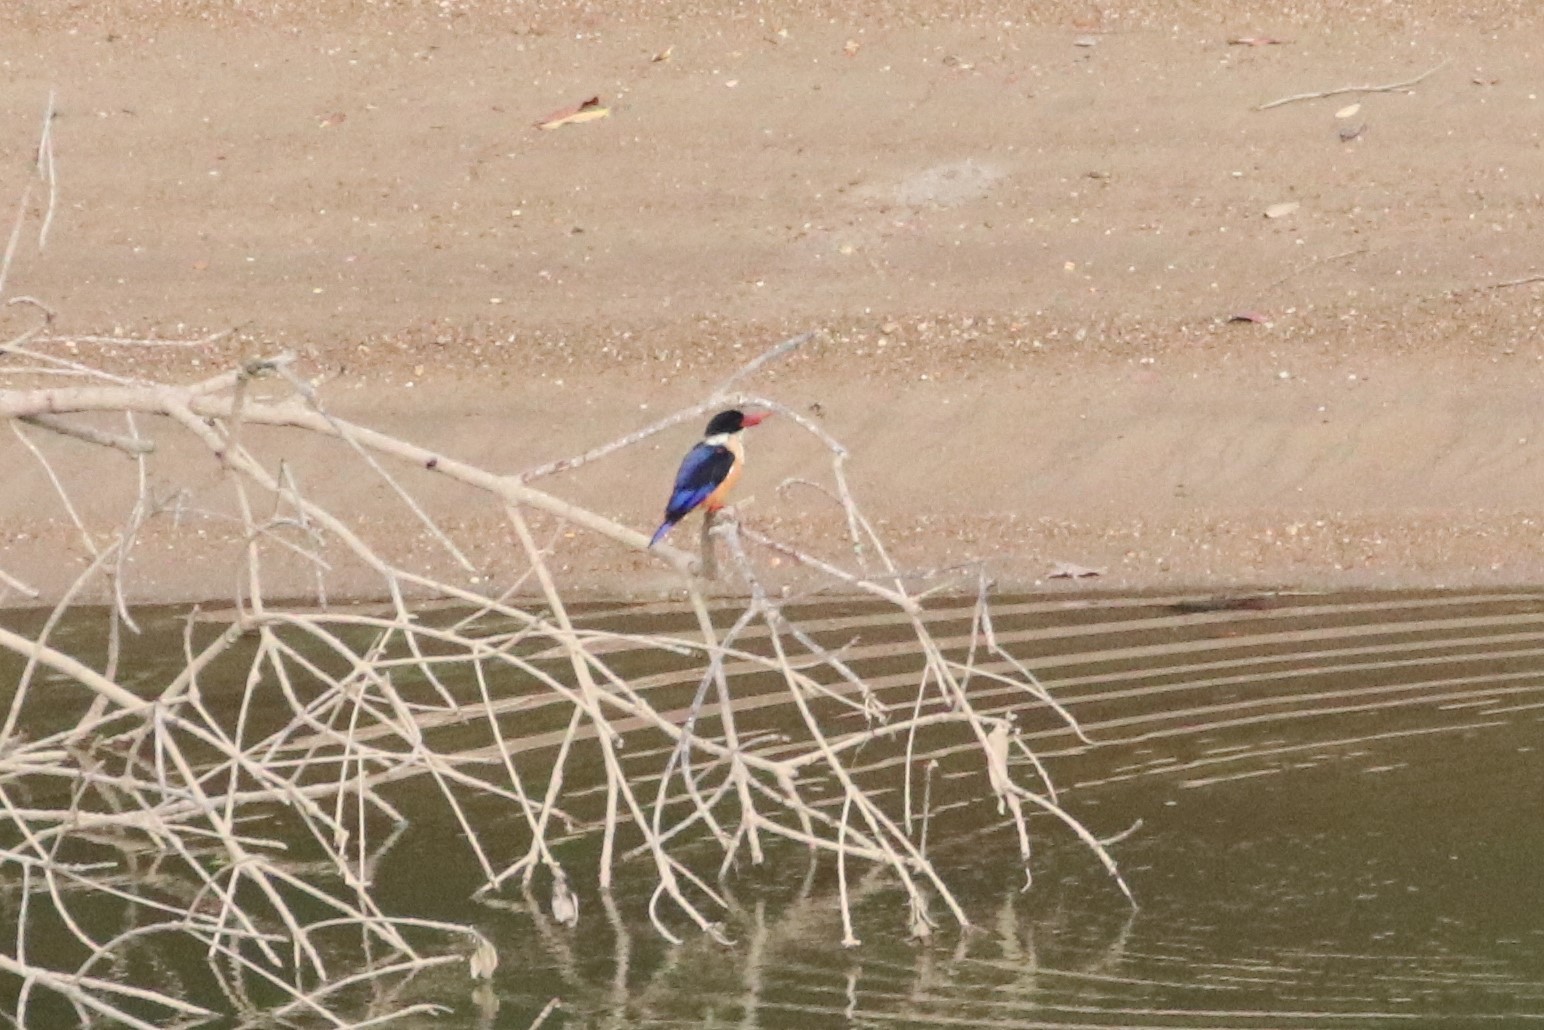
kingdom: Animalia
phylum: Chordata
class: Aves
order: Coraciiformes
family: Alcedinidae
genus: Halcyon
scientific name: Halcyon pileata
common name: Black-capped kingfisher
